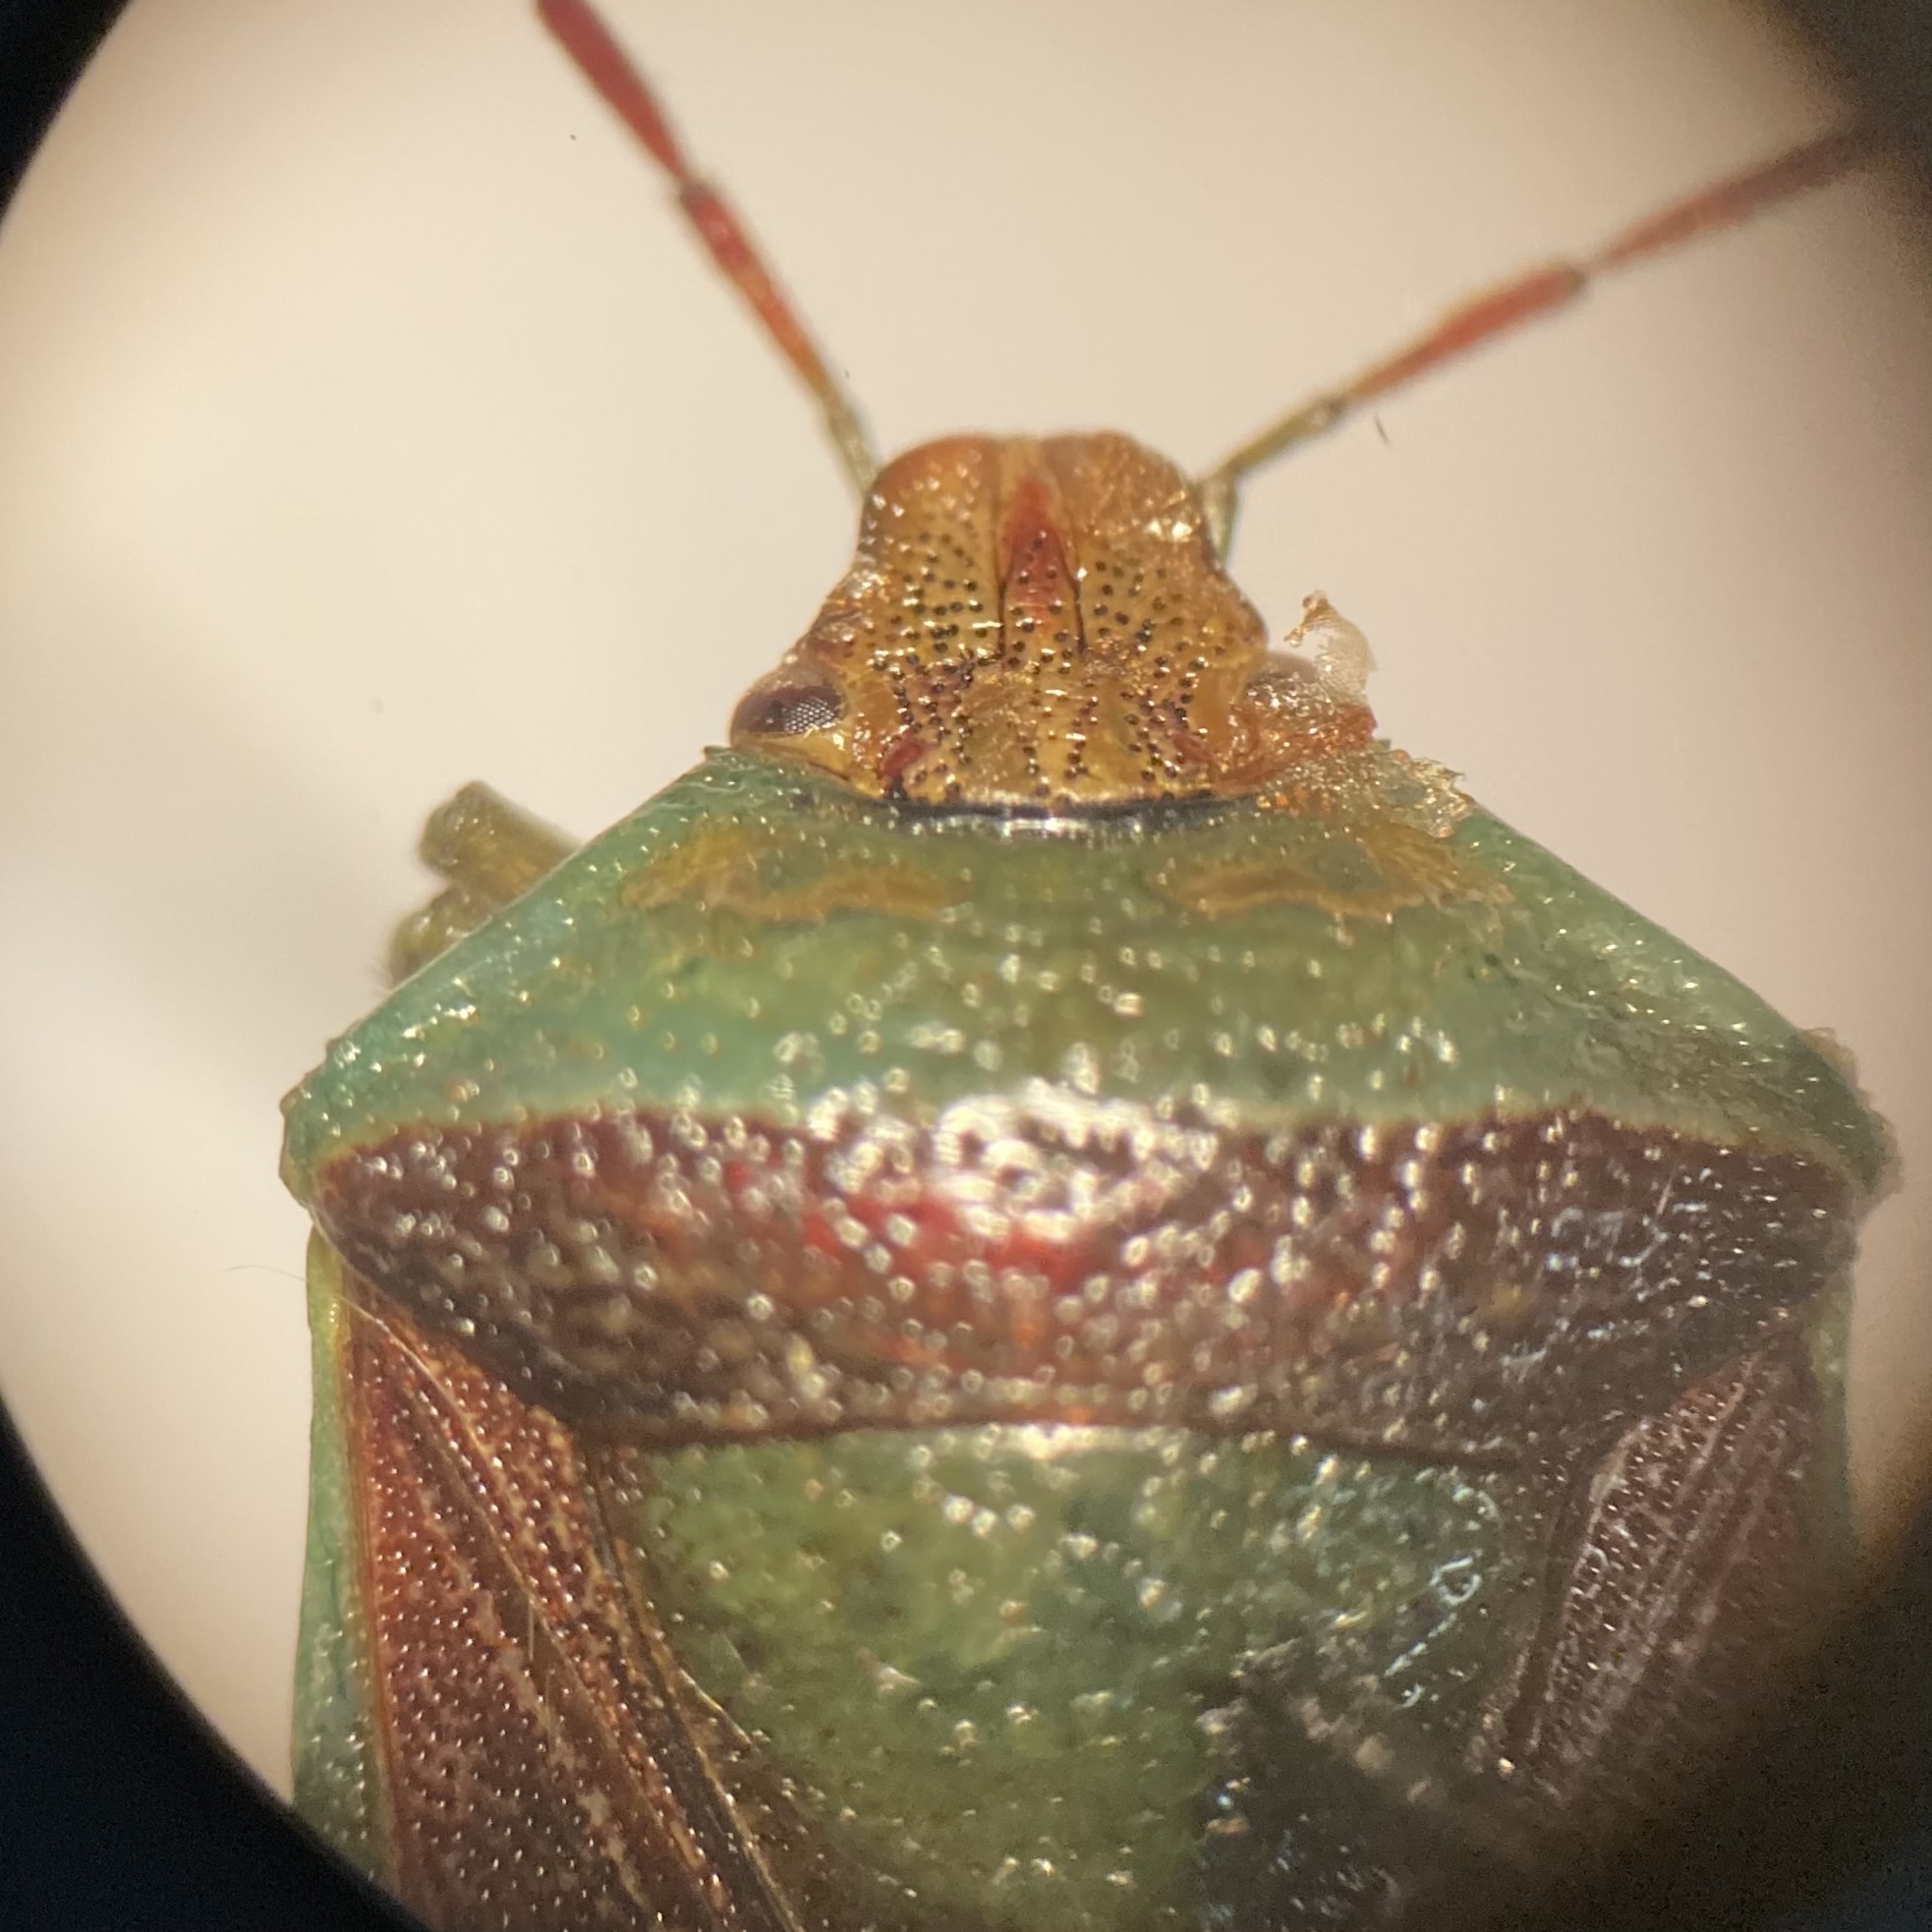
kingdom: Animalia
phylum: Arthropoda
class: Insecta
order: Hemiptera
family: Pentatomidae
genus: Banasa
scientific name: Banasa dimidiata
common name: Green burgundy stink bug
